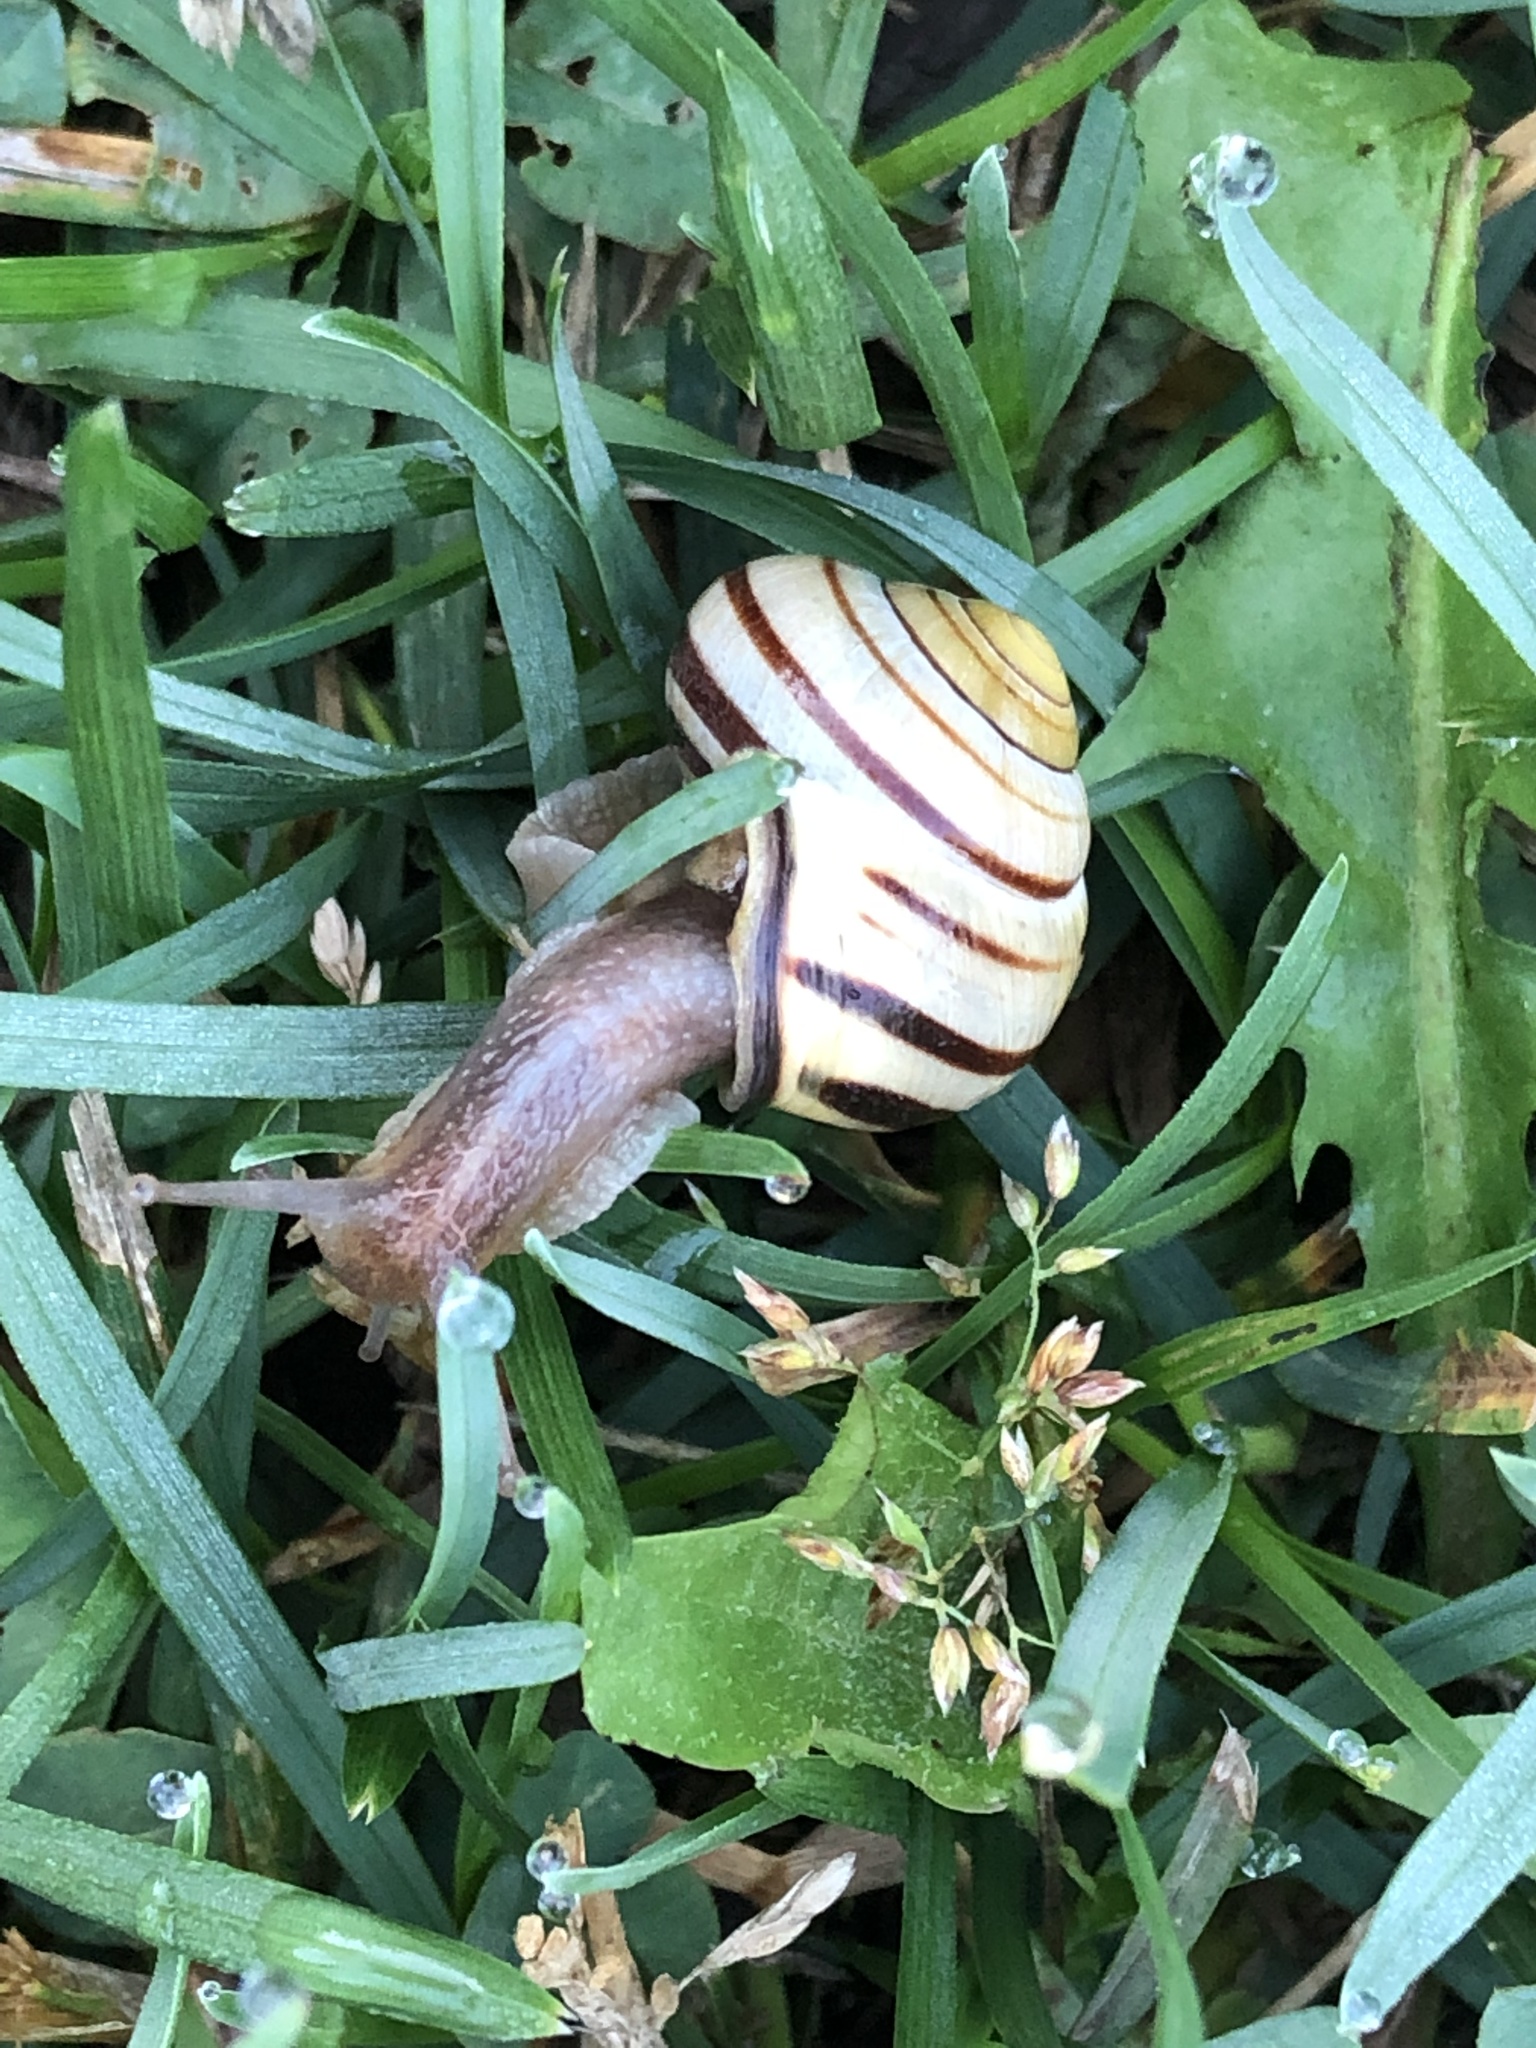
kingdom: Animalia
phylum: Mollusca
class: Gastropoda
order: Stylommatophora
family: Helicidae
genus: Cepaea
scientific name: Cepaea nemoralis
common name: Grovesnail
